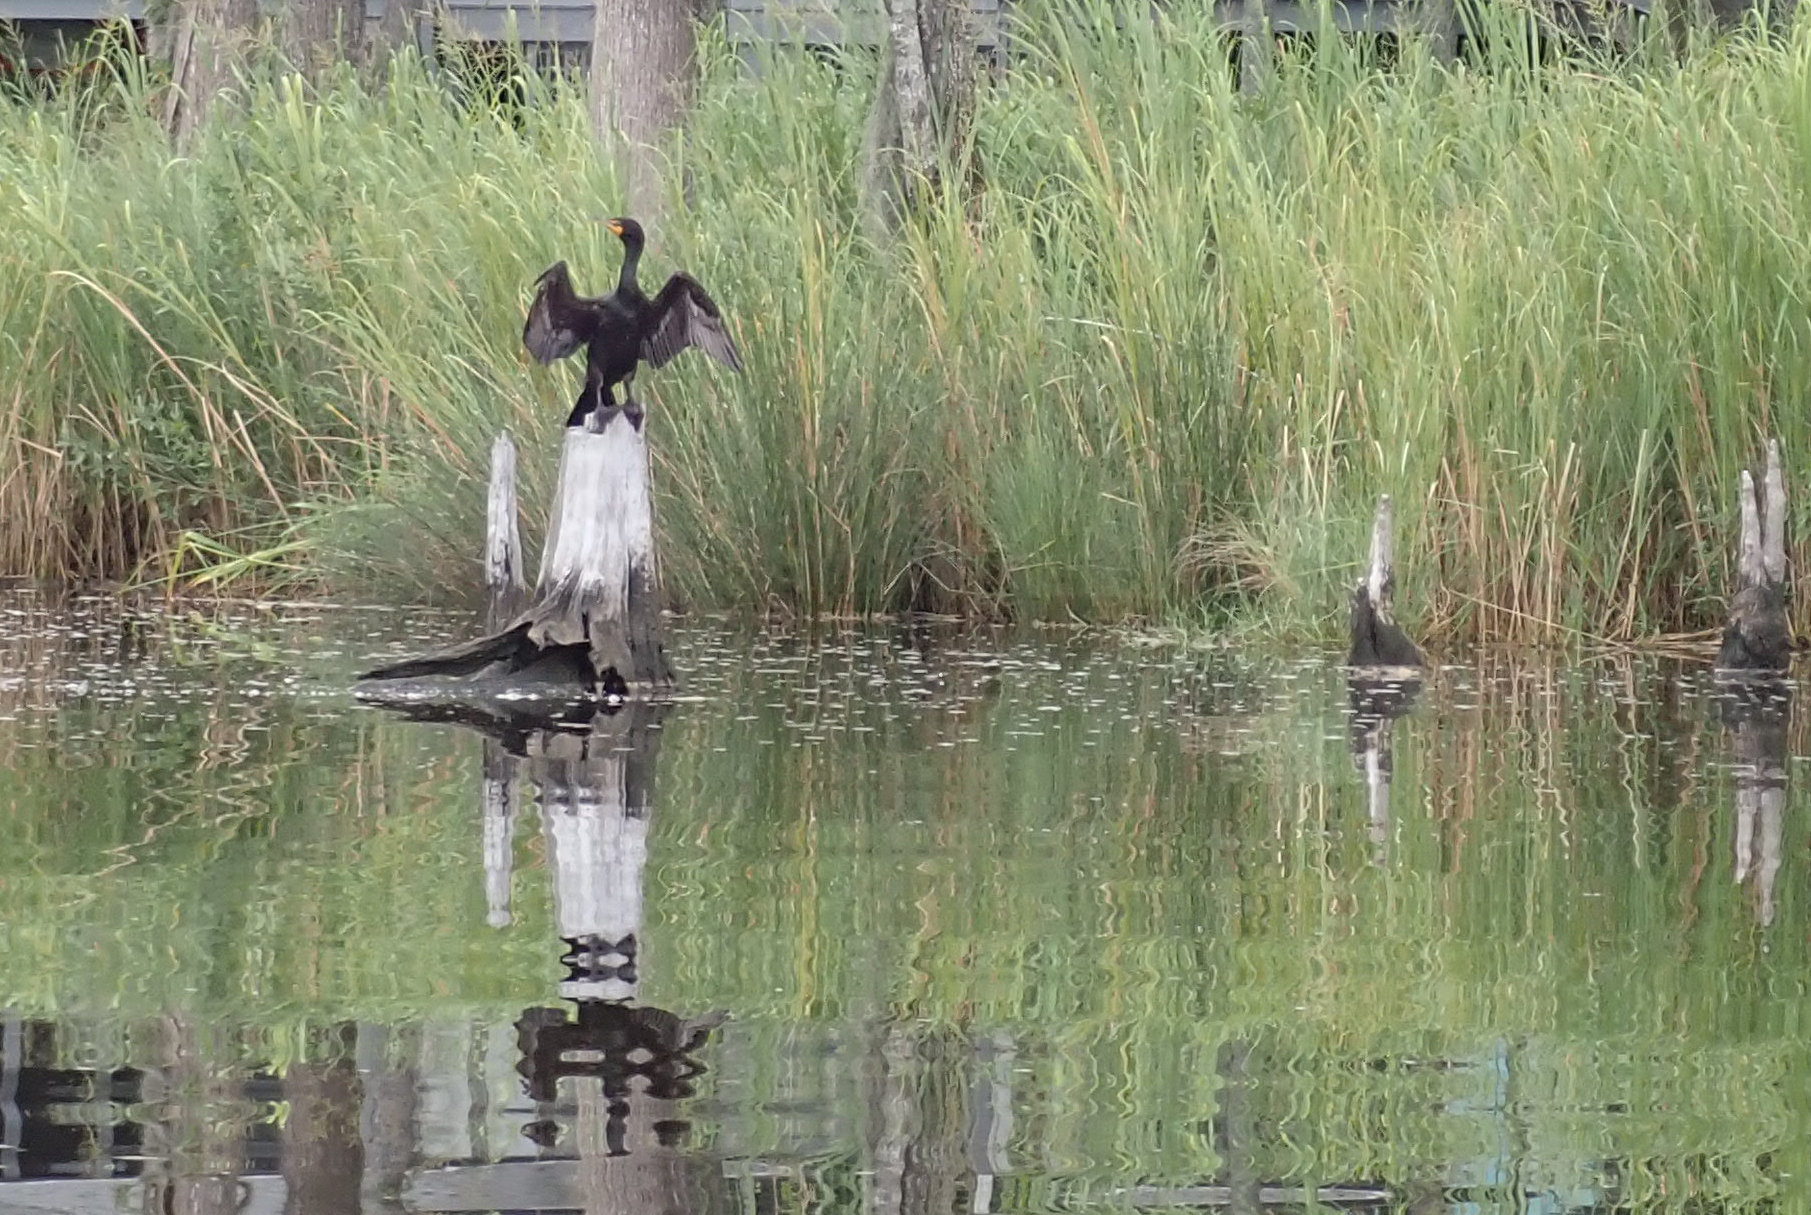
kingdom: Animalia
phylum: Chordata
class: Aves
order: Suliformes
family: Phalacrocoracidae
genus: Phalacrocorax
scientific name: Phalacrocorax auritus
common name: Double-crested cormorant
